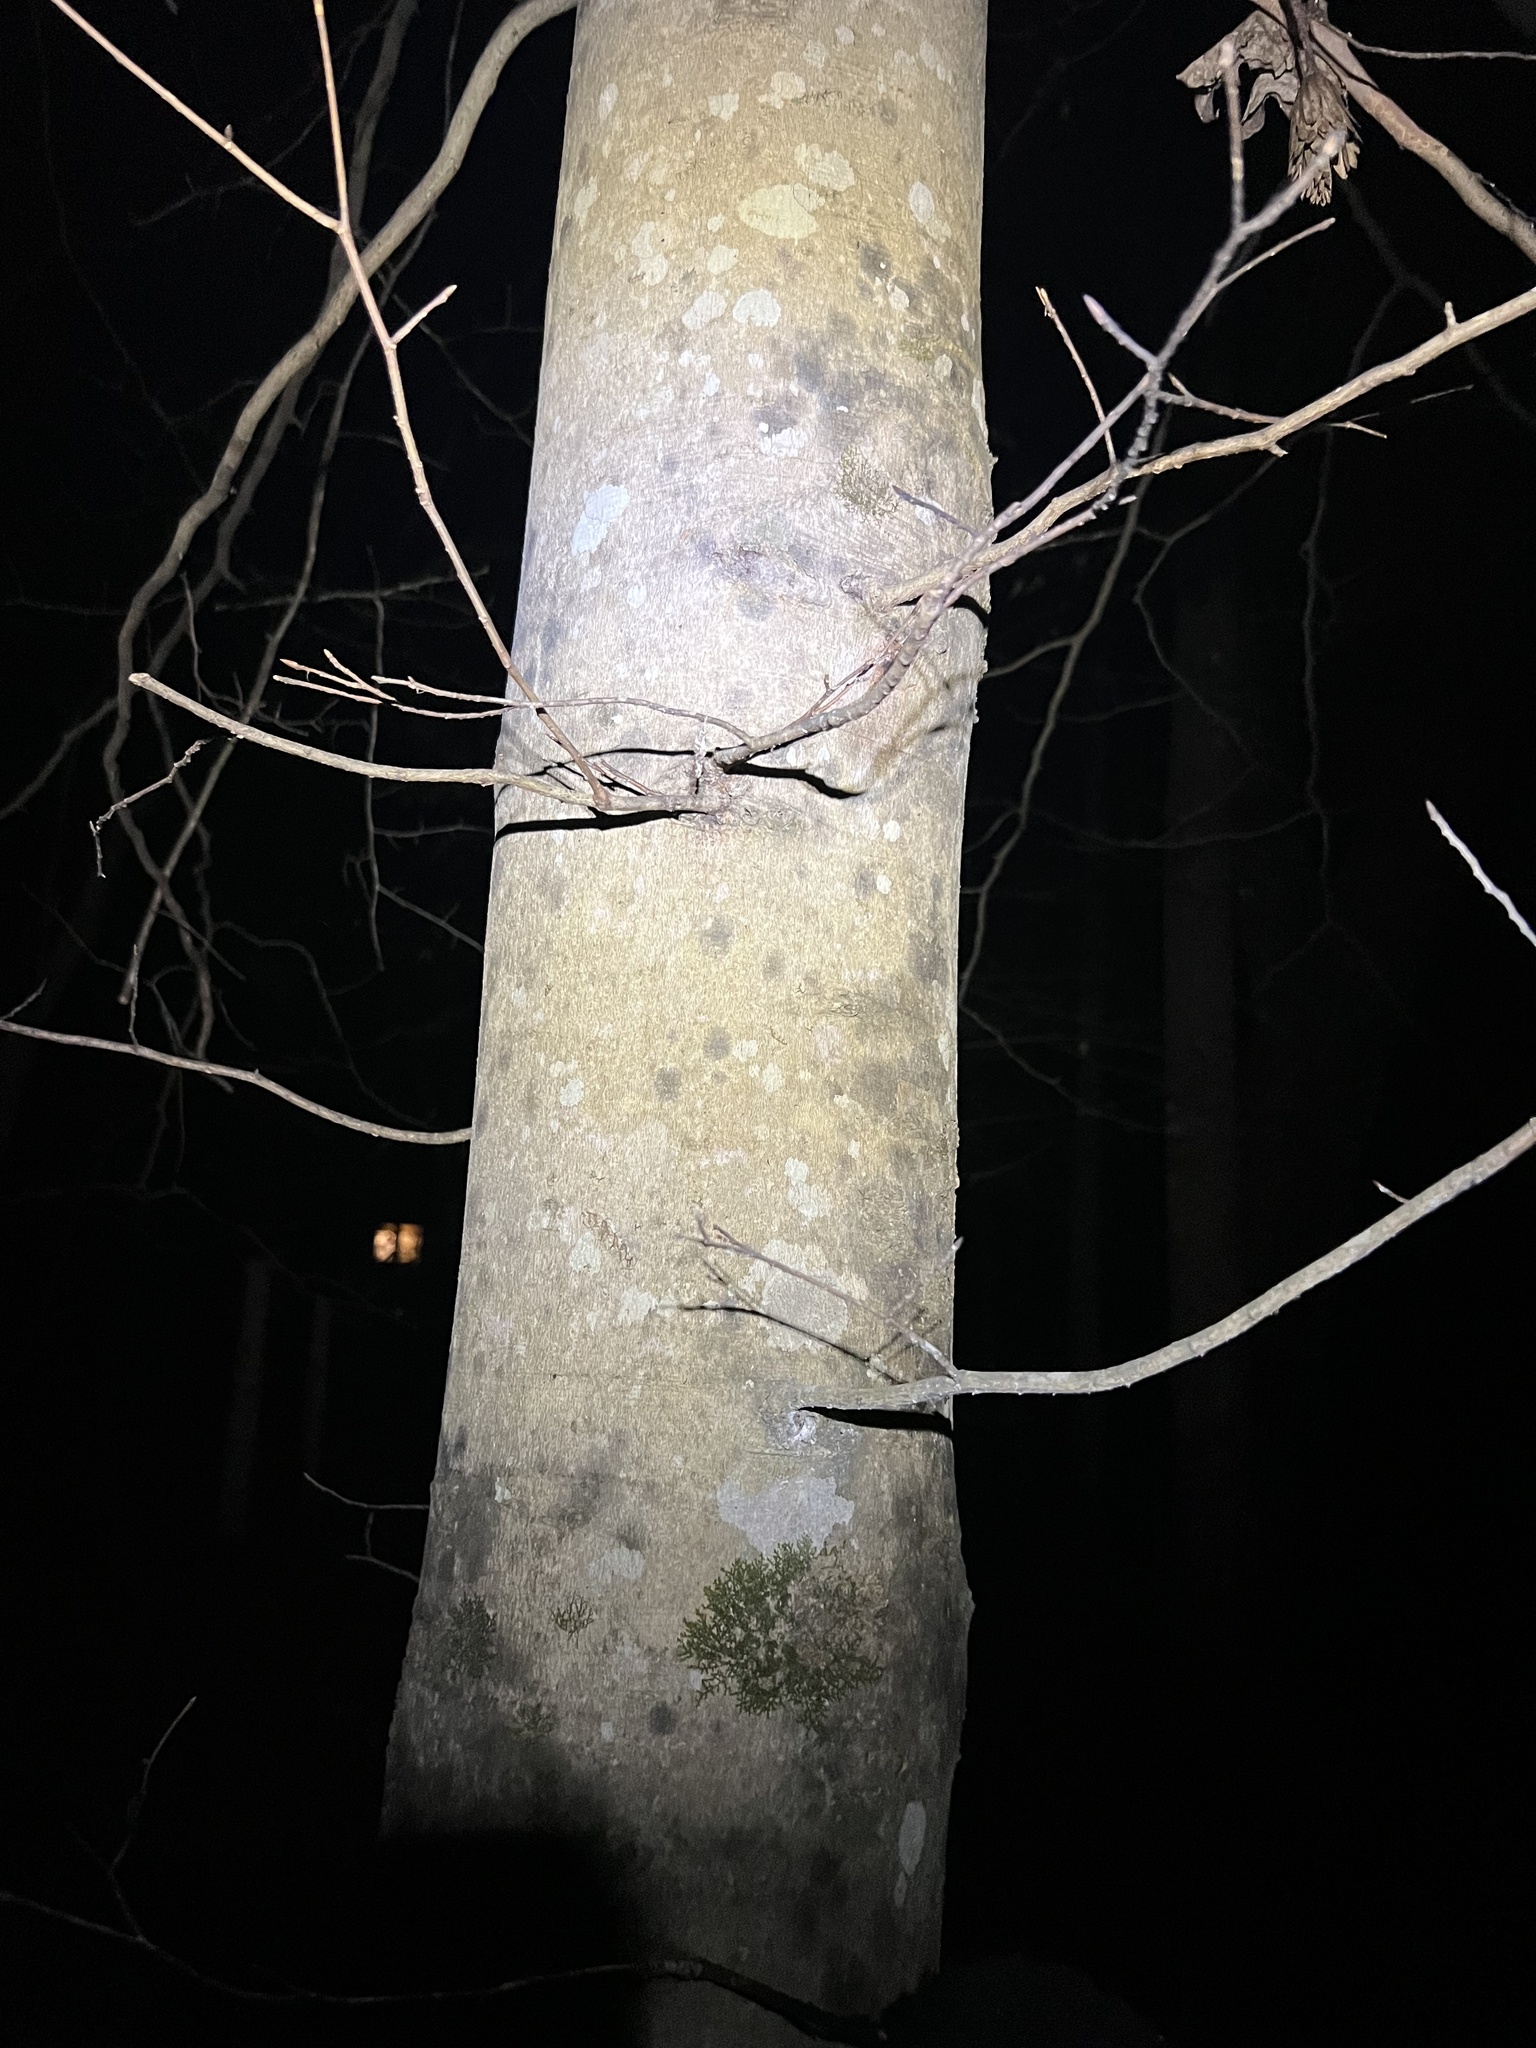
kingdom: Plantae
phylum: Tracheophyta
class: Magnoliopsida
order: Fagales
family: Fagaceae
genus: Fagus
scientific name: Fagus grandifolia
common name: American beech
